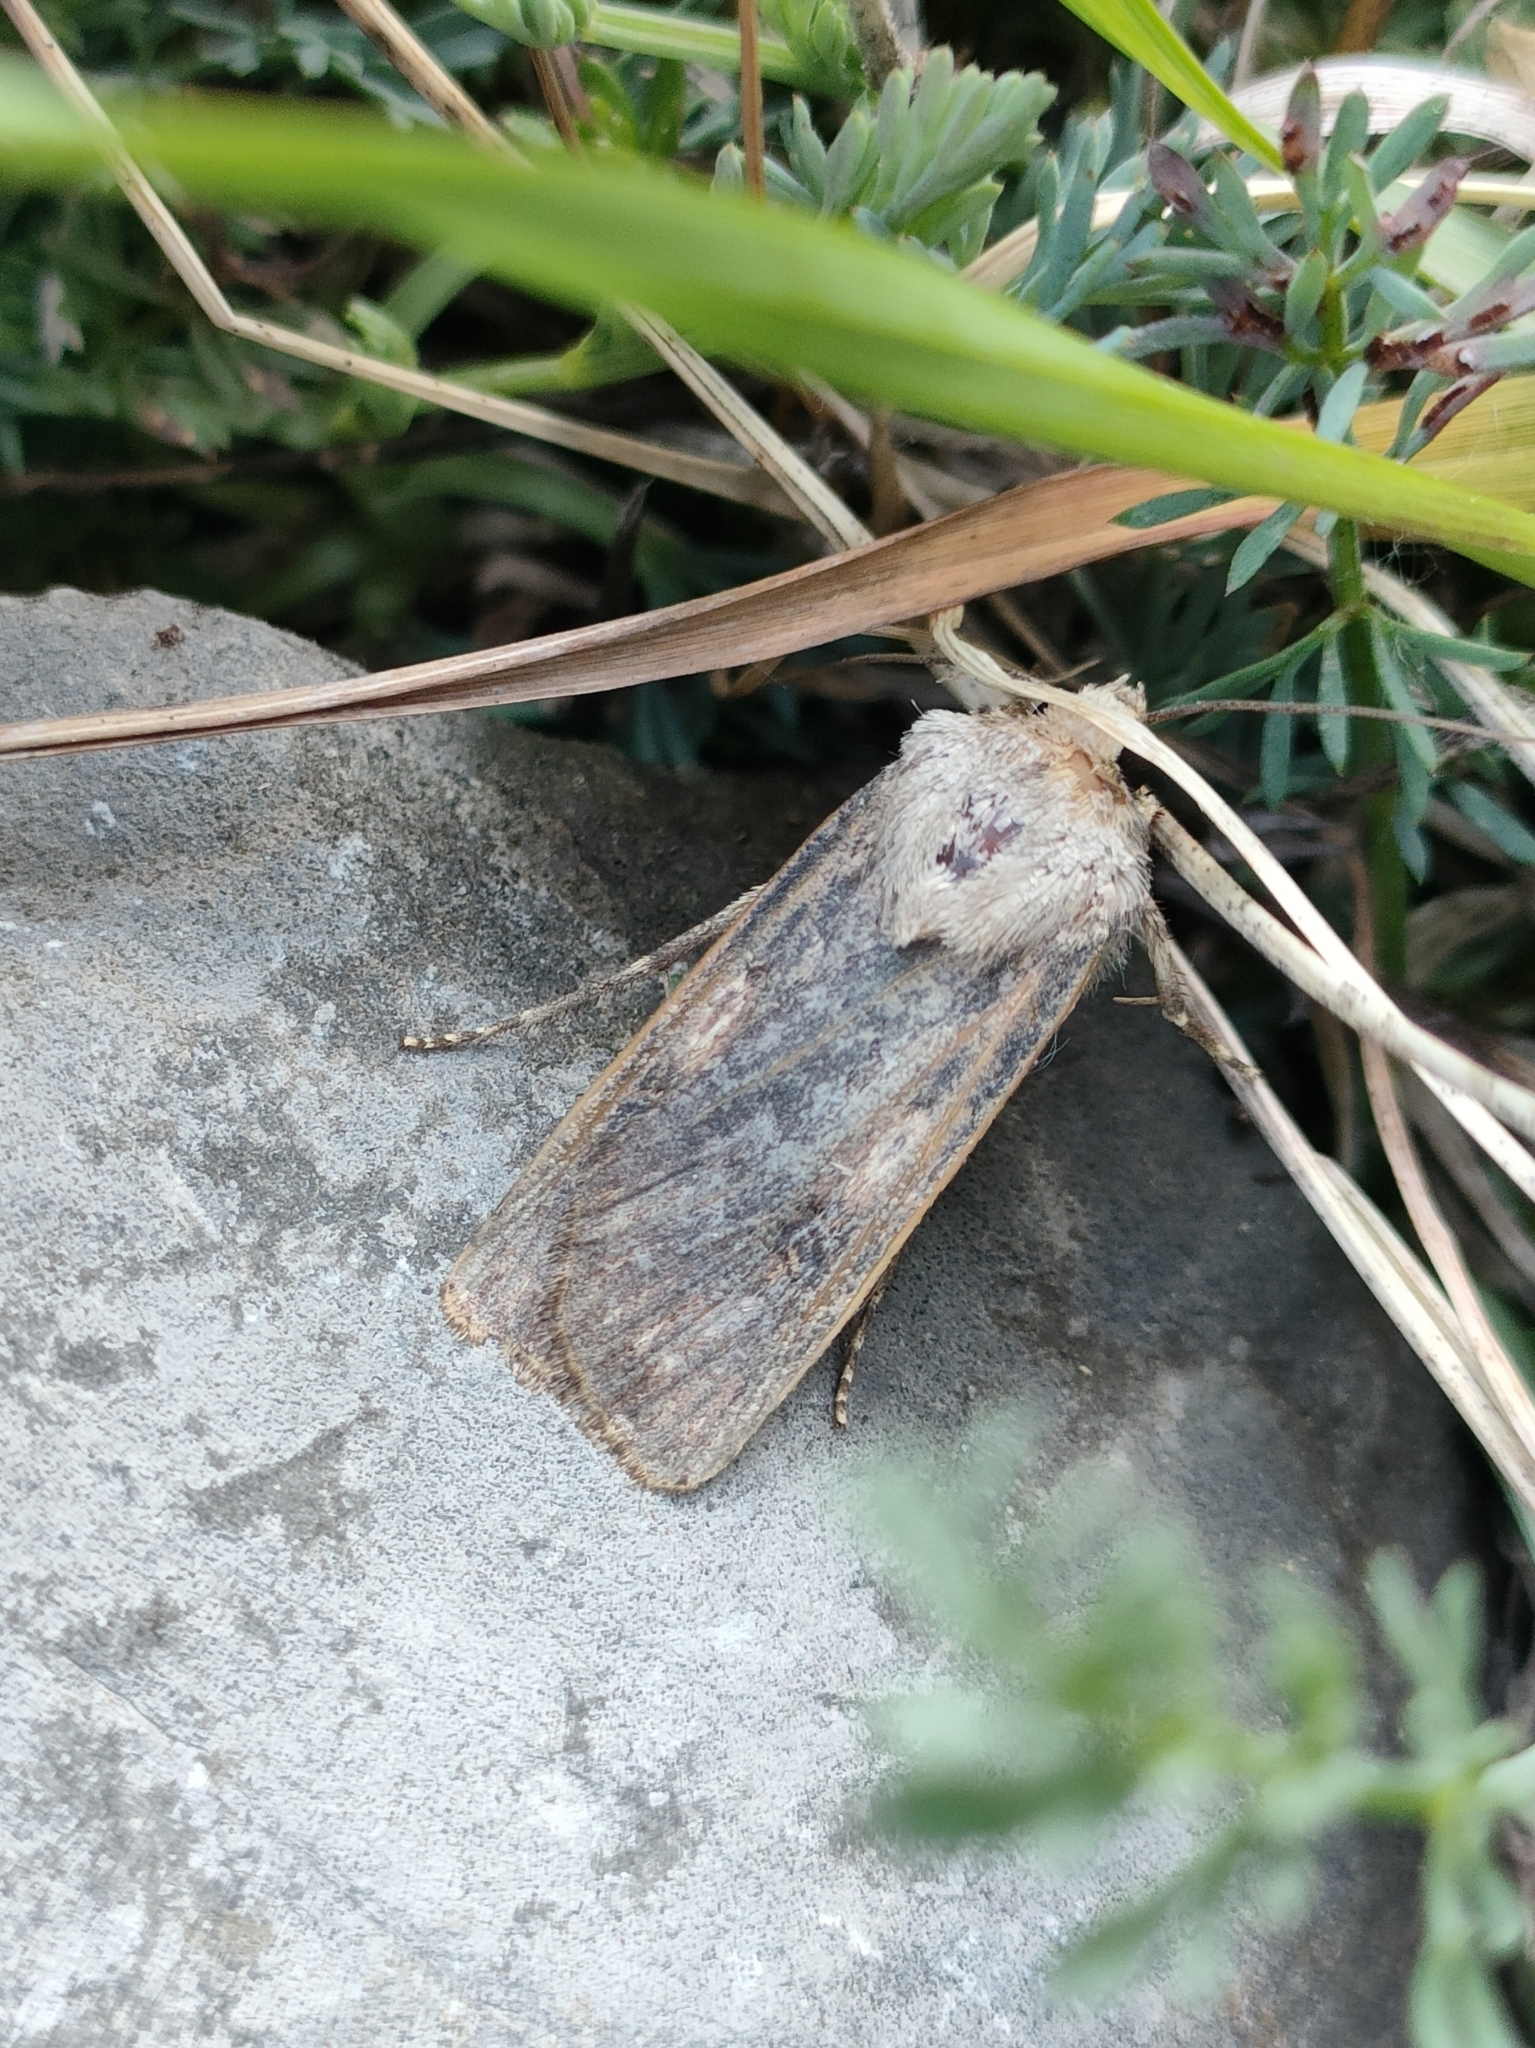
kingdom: Animalia
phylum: Arthropoda
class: Insecta
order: Lepidoptera
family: Noctuidae
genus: Agrotis
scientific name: Agrotis puta
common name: Shuttle-shaped dart
